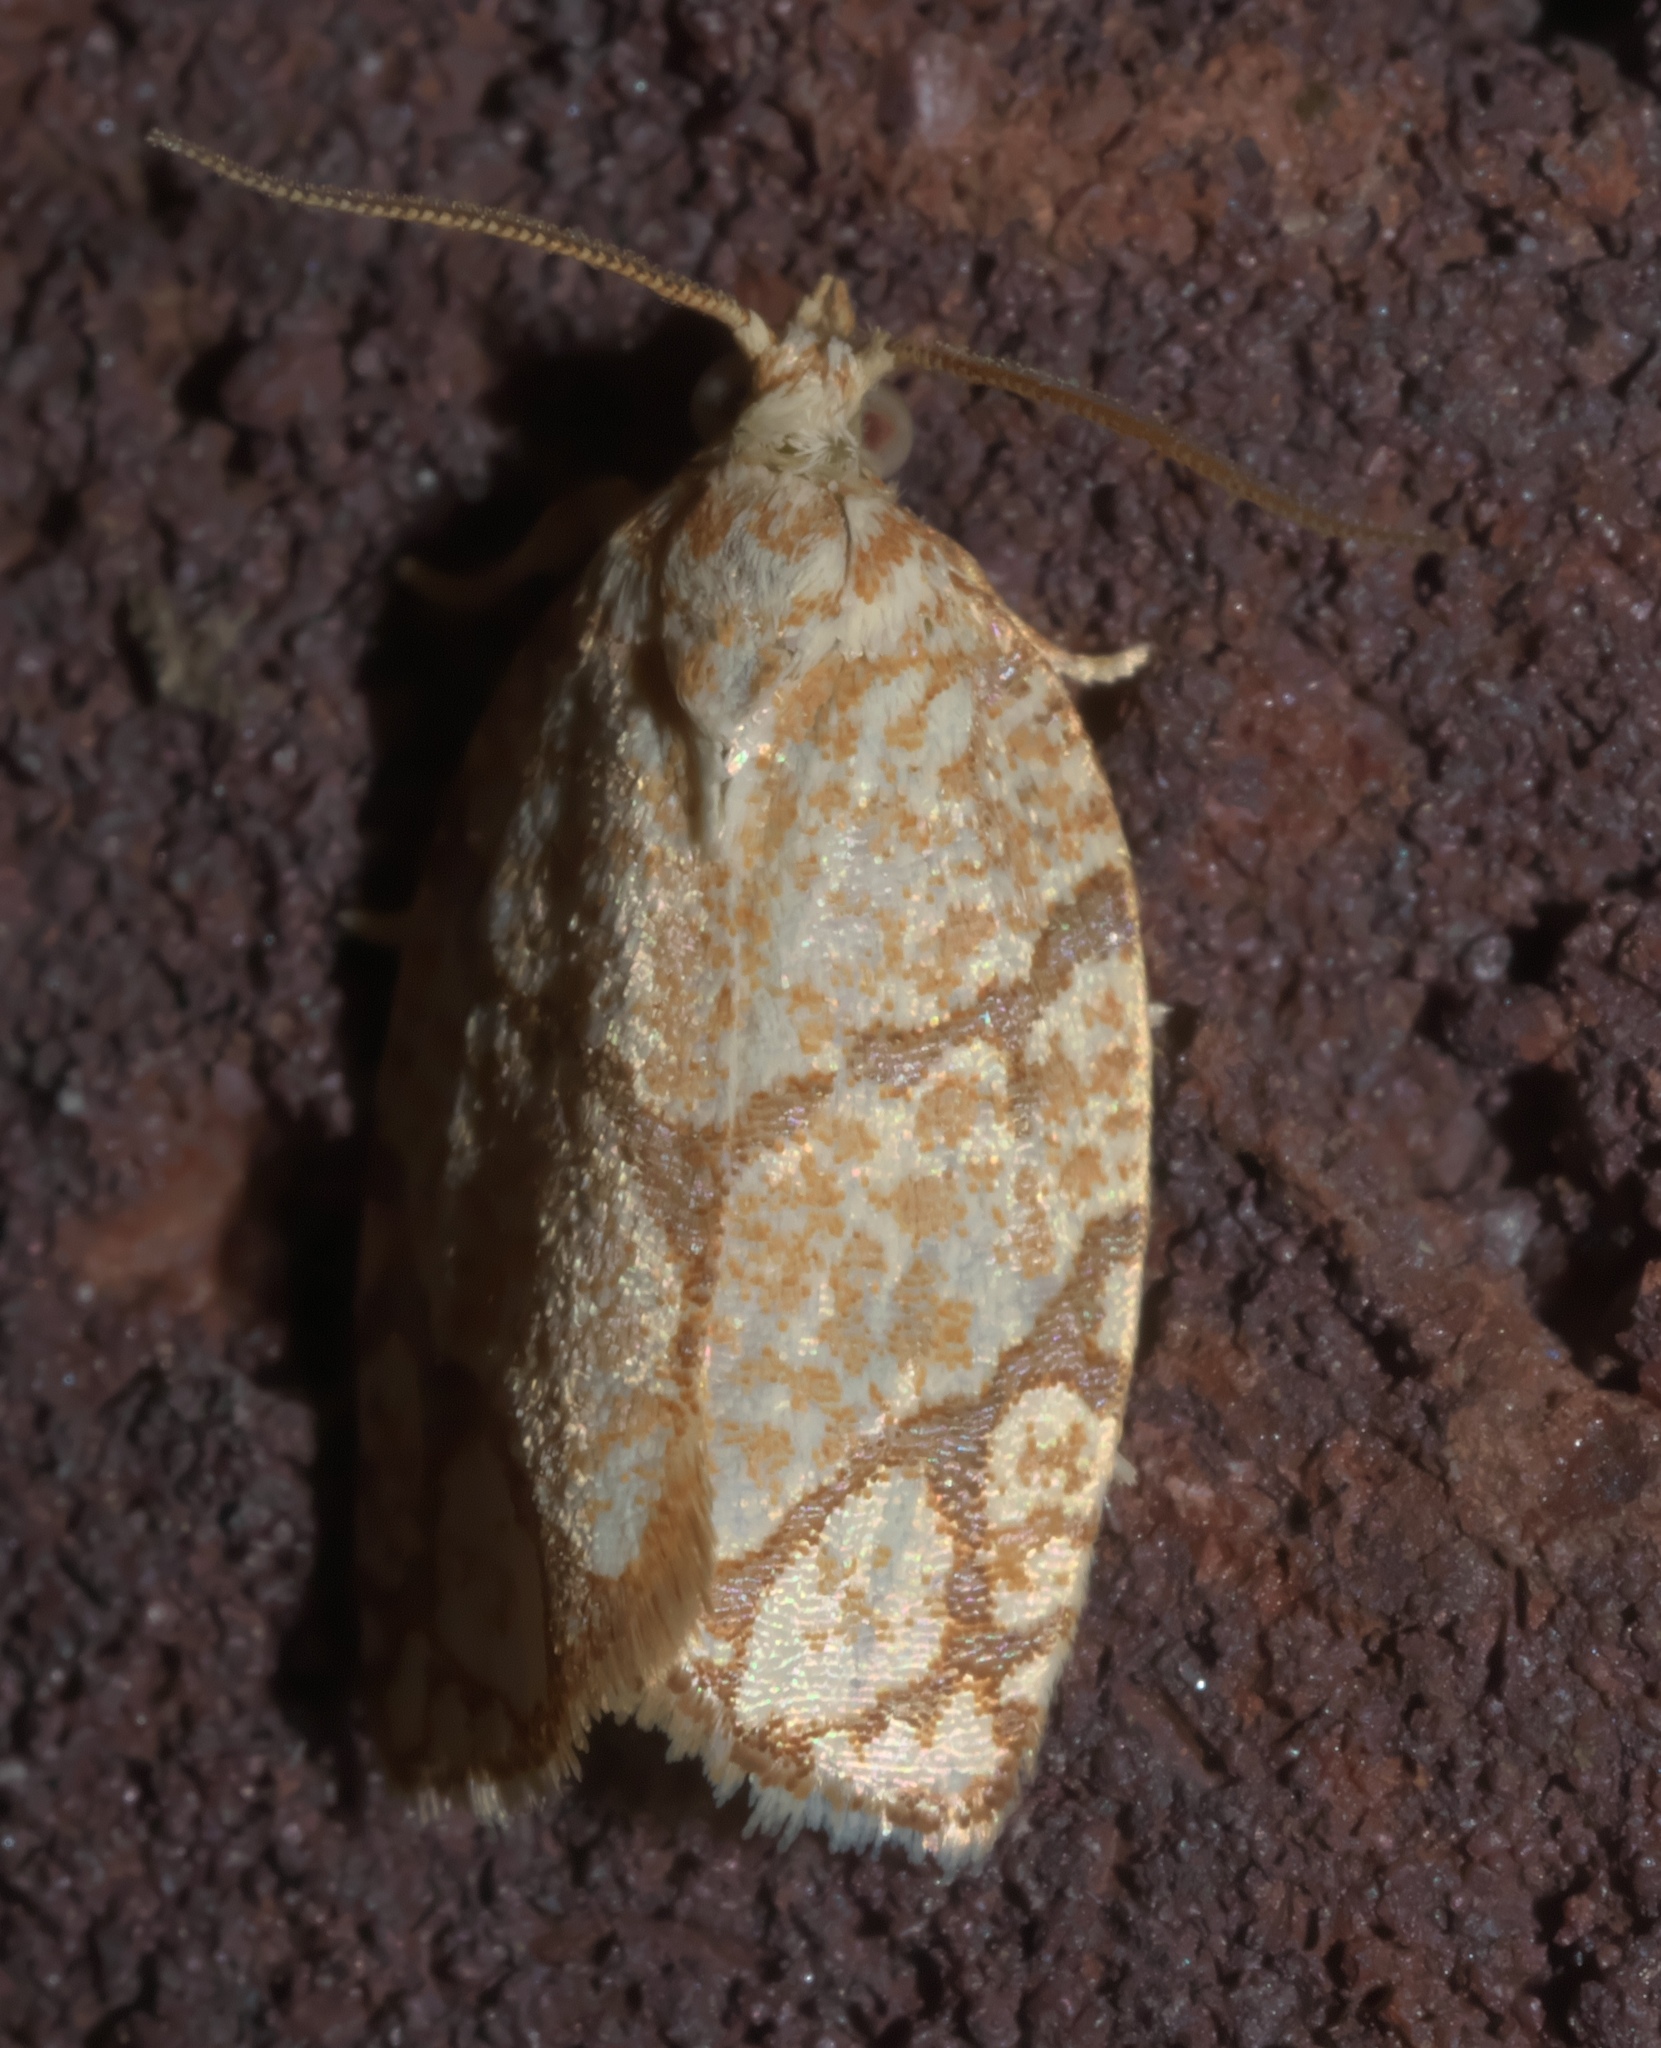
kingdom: Animalia
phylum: Arthropoda
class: Insecta
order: Lepidoptera
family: Tortricidae
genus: Argyrotaenia
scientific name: Argyrotaenia quercifoliana
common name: Yellow-winged oak leafroller moth
